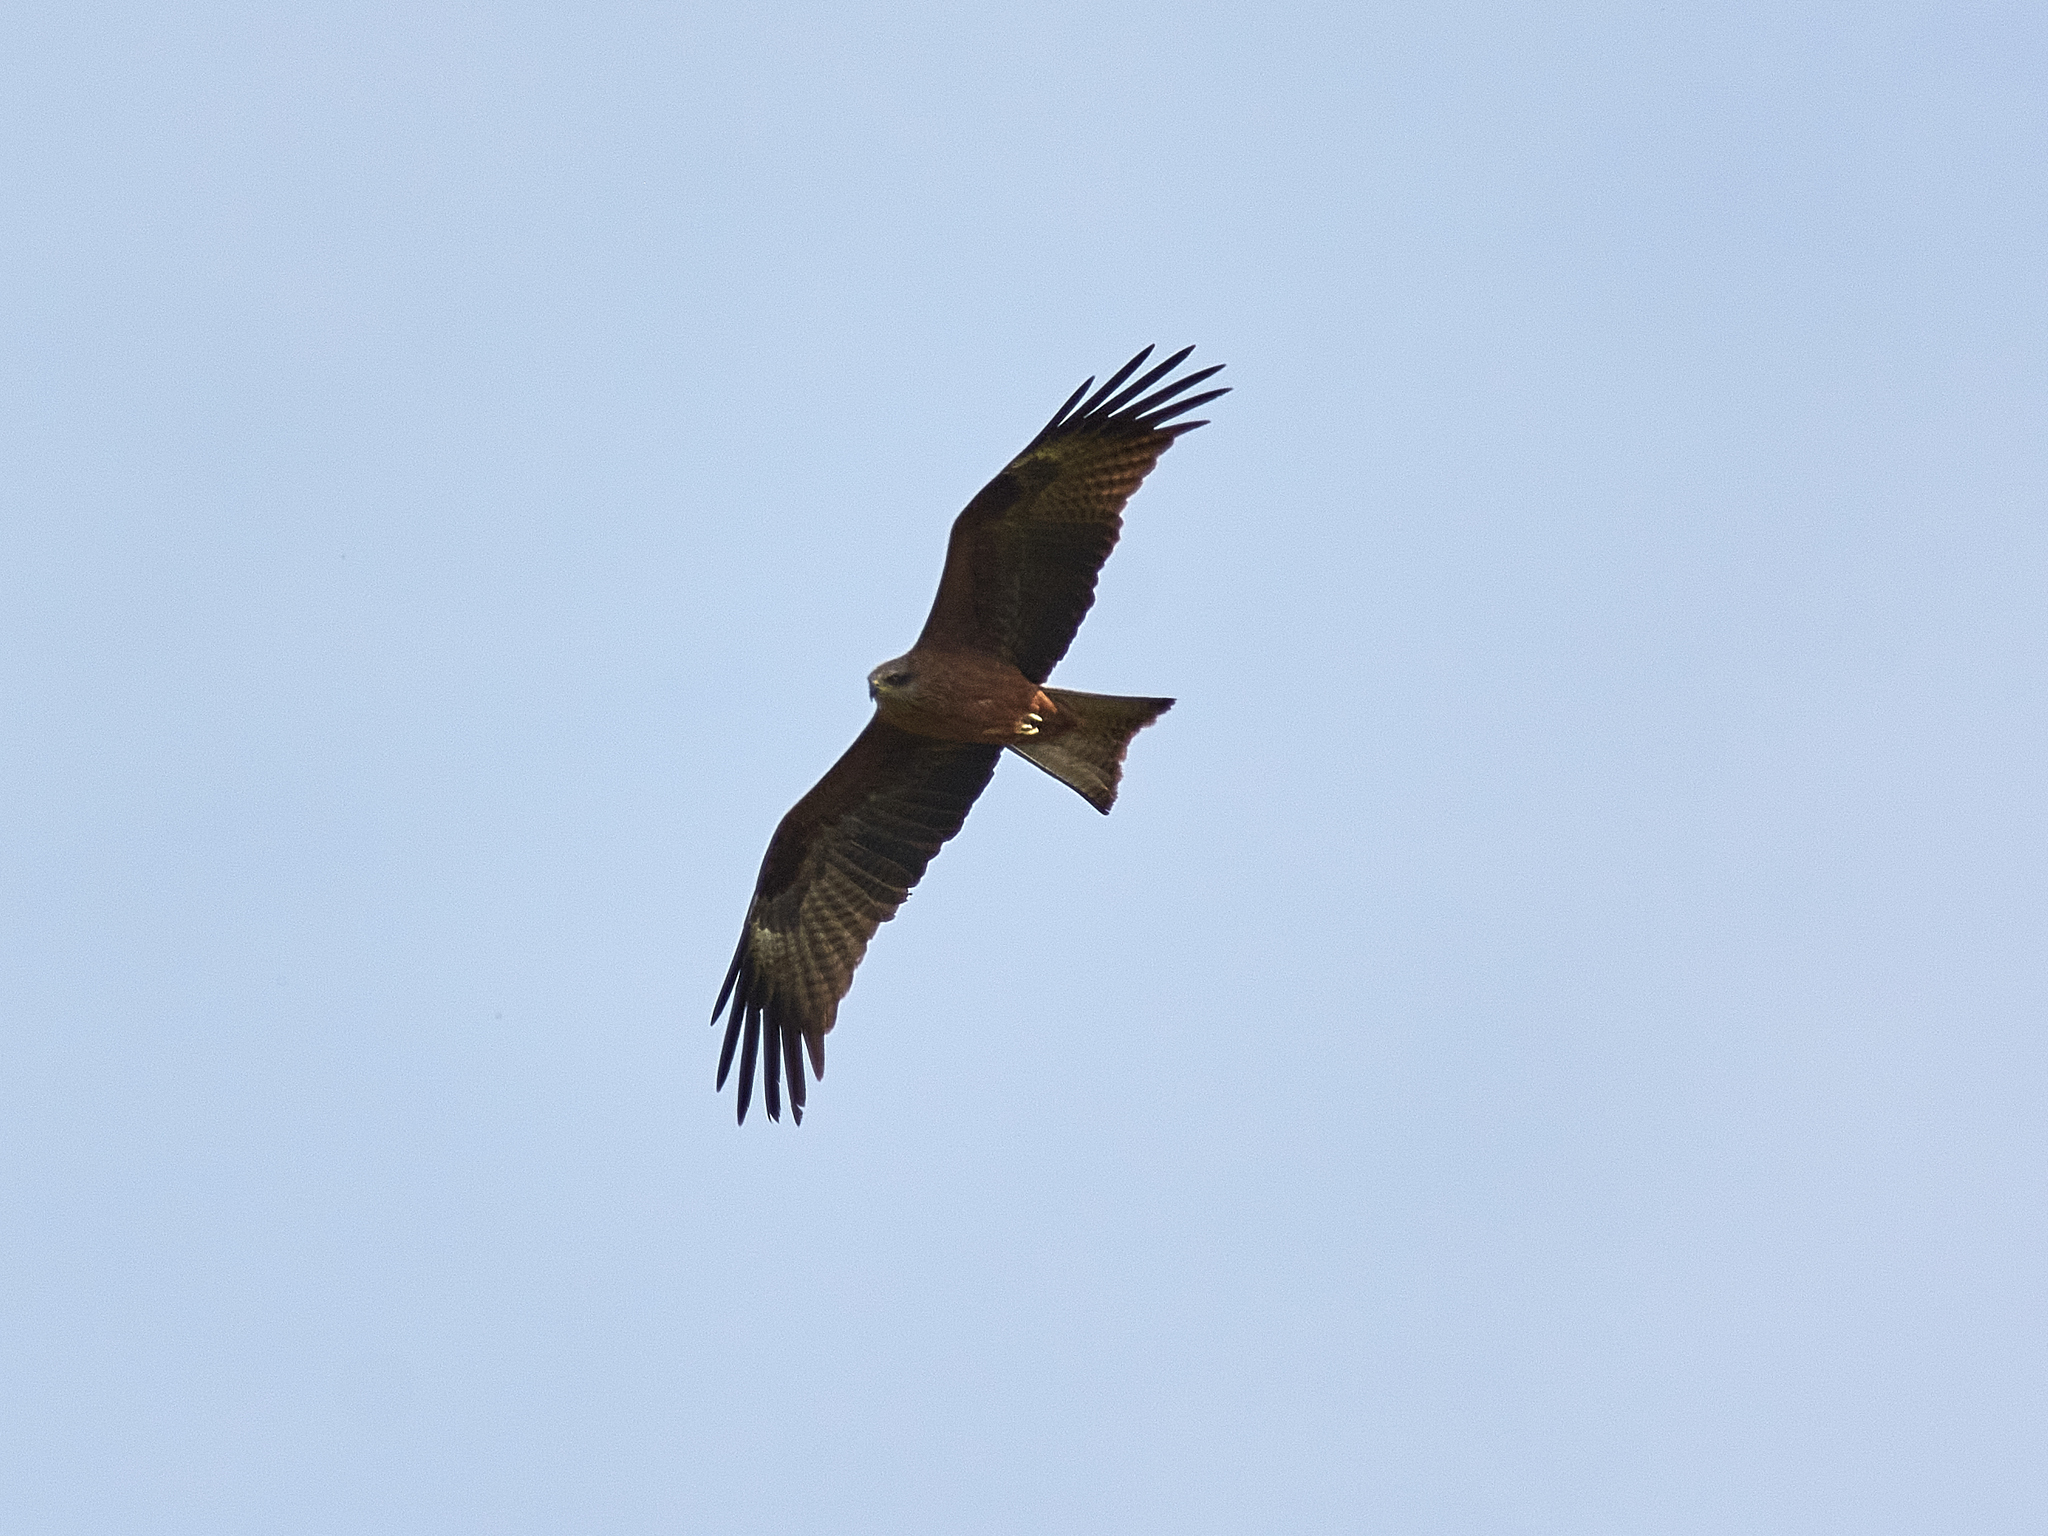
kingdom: Animalia
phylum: Chordata
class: Aves
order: Accipitriformes
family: Accipitridae
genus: Milvus
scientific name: Milvus migrans
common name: Black kite
